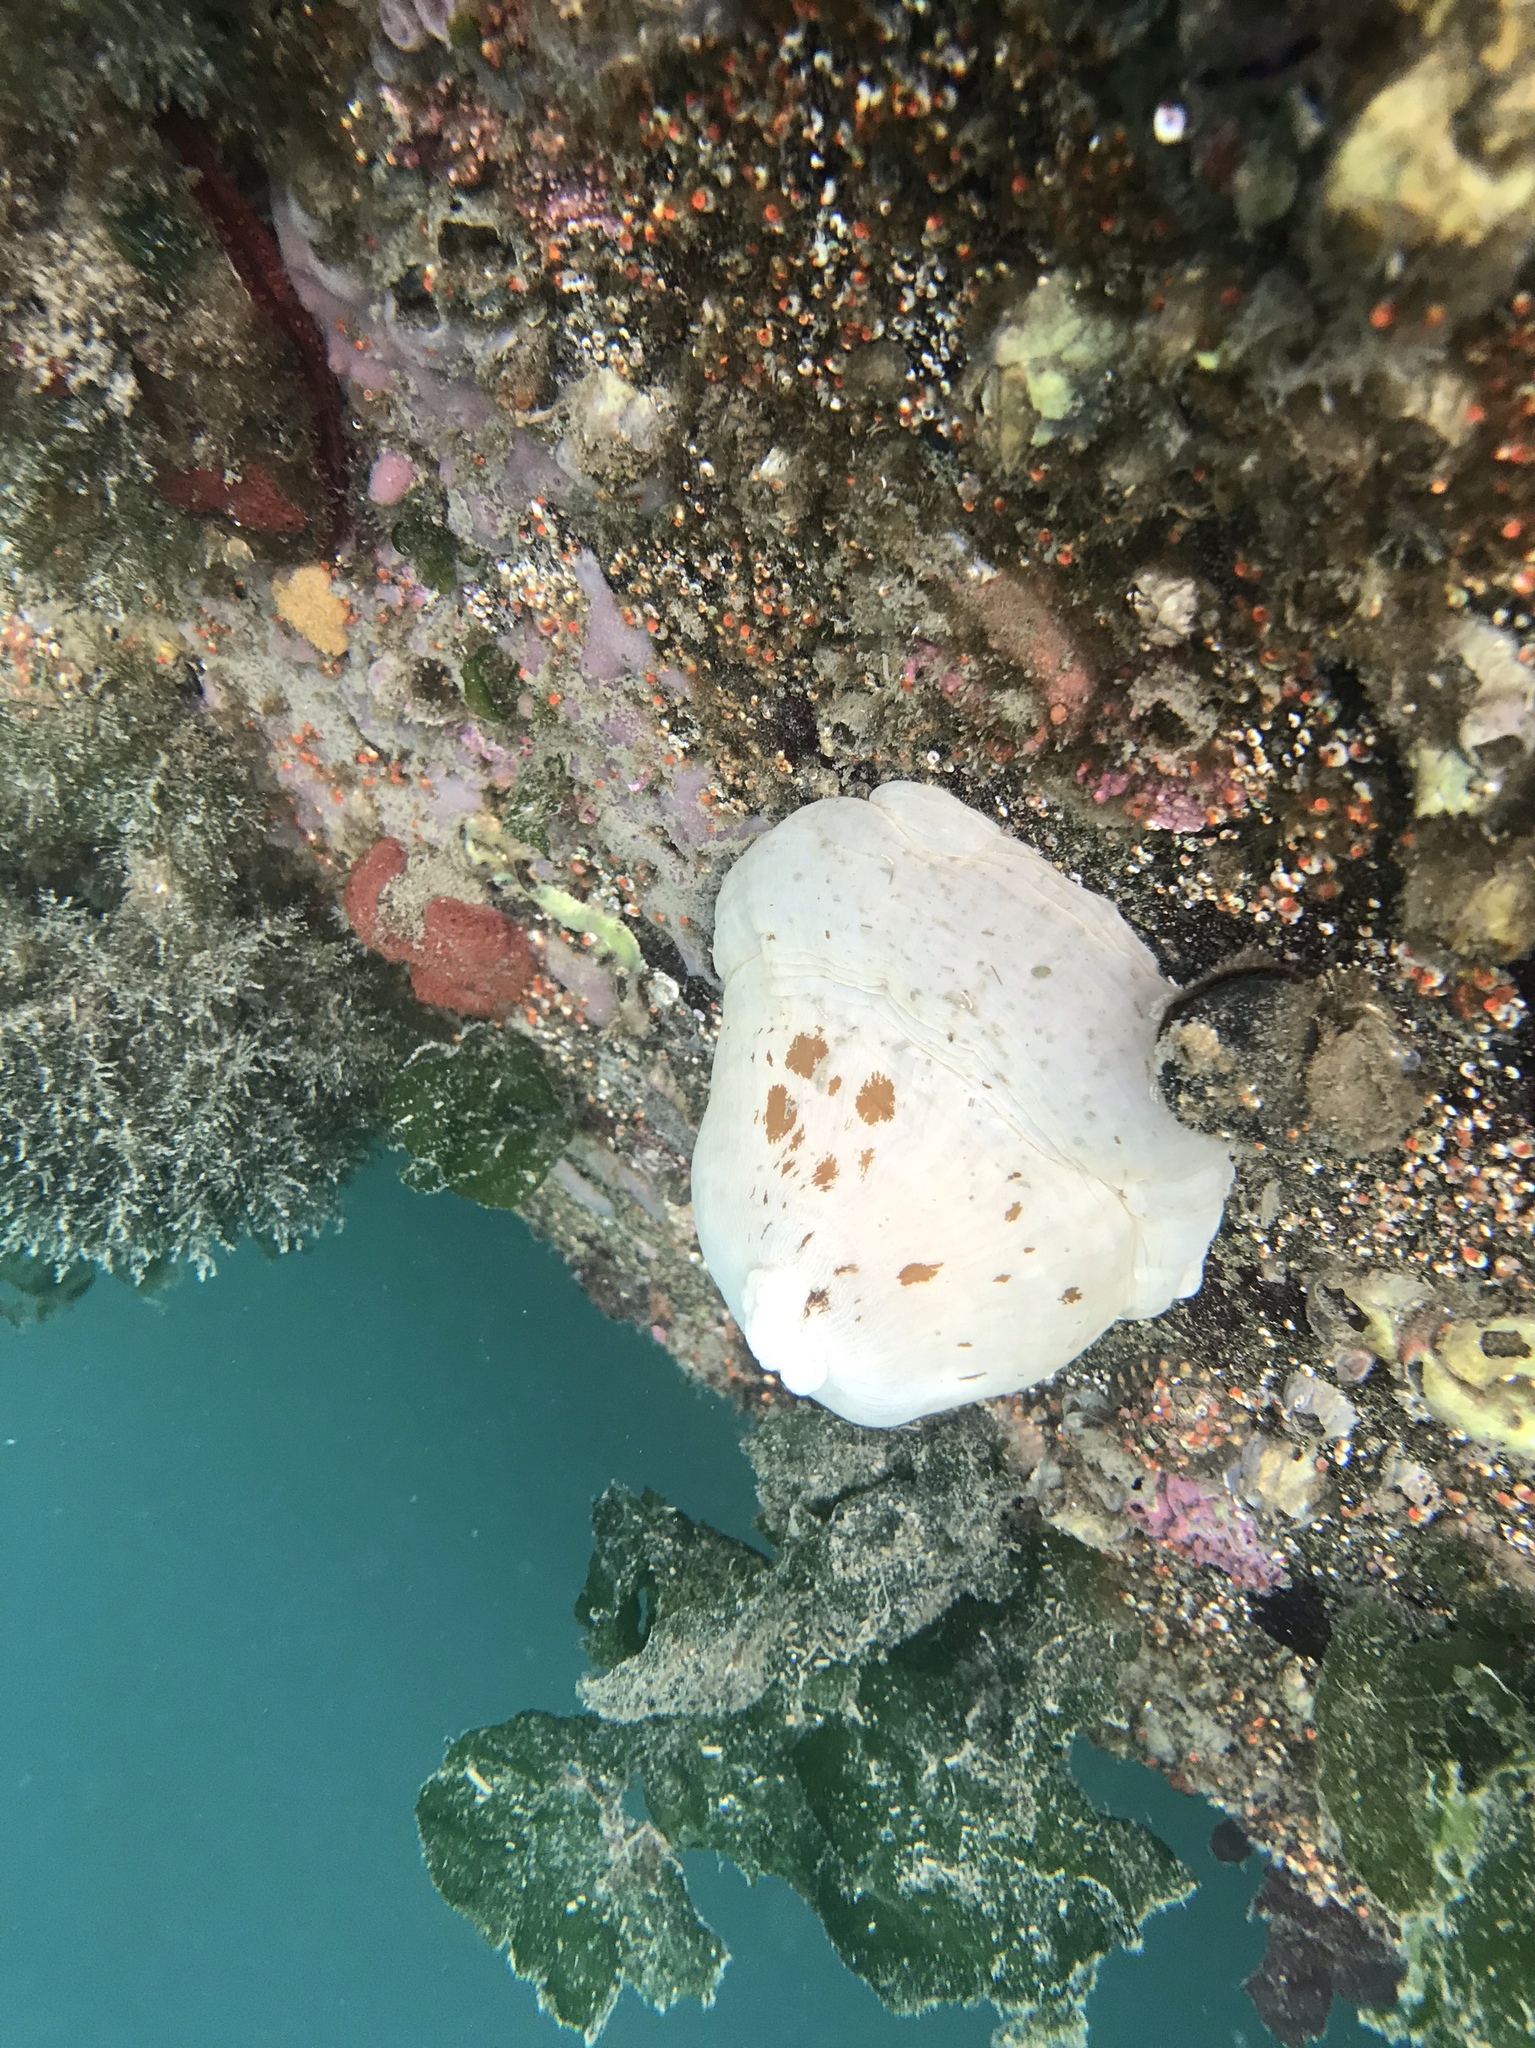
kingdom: Animalia
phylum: Cnidaria
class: Anthozoa
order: Actiniaria
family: Metridiidae
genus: Metridium
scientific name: Metridium farcimen
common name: Gigantic anemone
